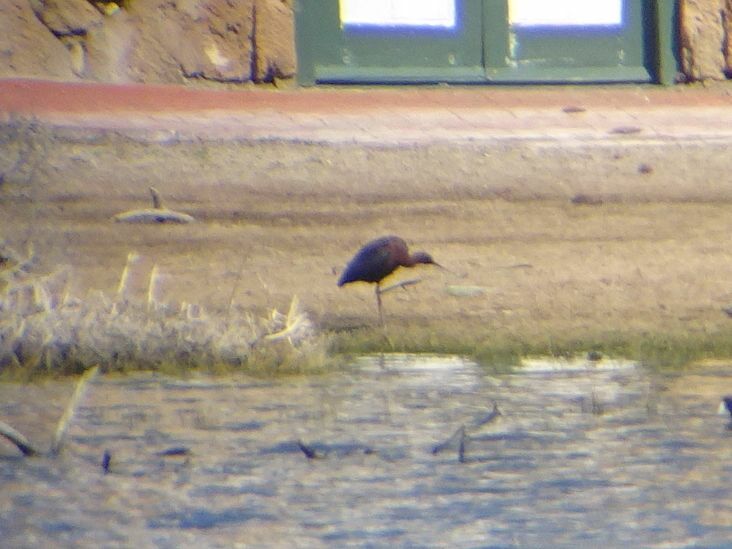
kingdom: Animalia
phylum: Chordata
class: Aves
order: Pelecaniformes
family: Threskiornithidae
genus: Plegadis
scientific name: Plegadis falcinellus
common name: Glossy ibis
